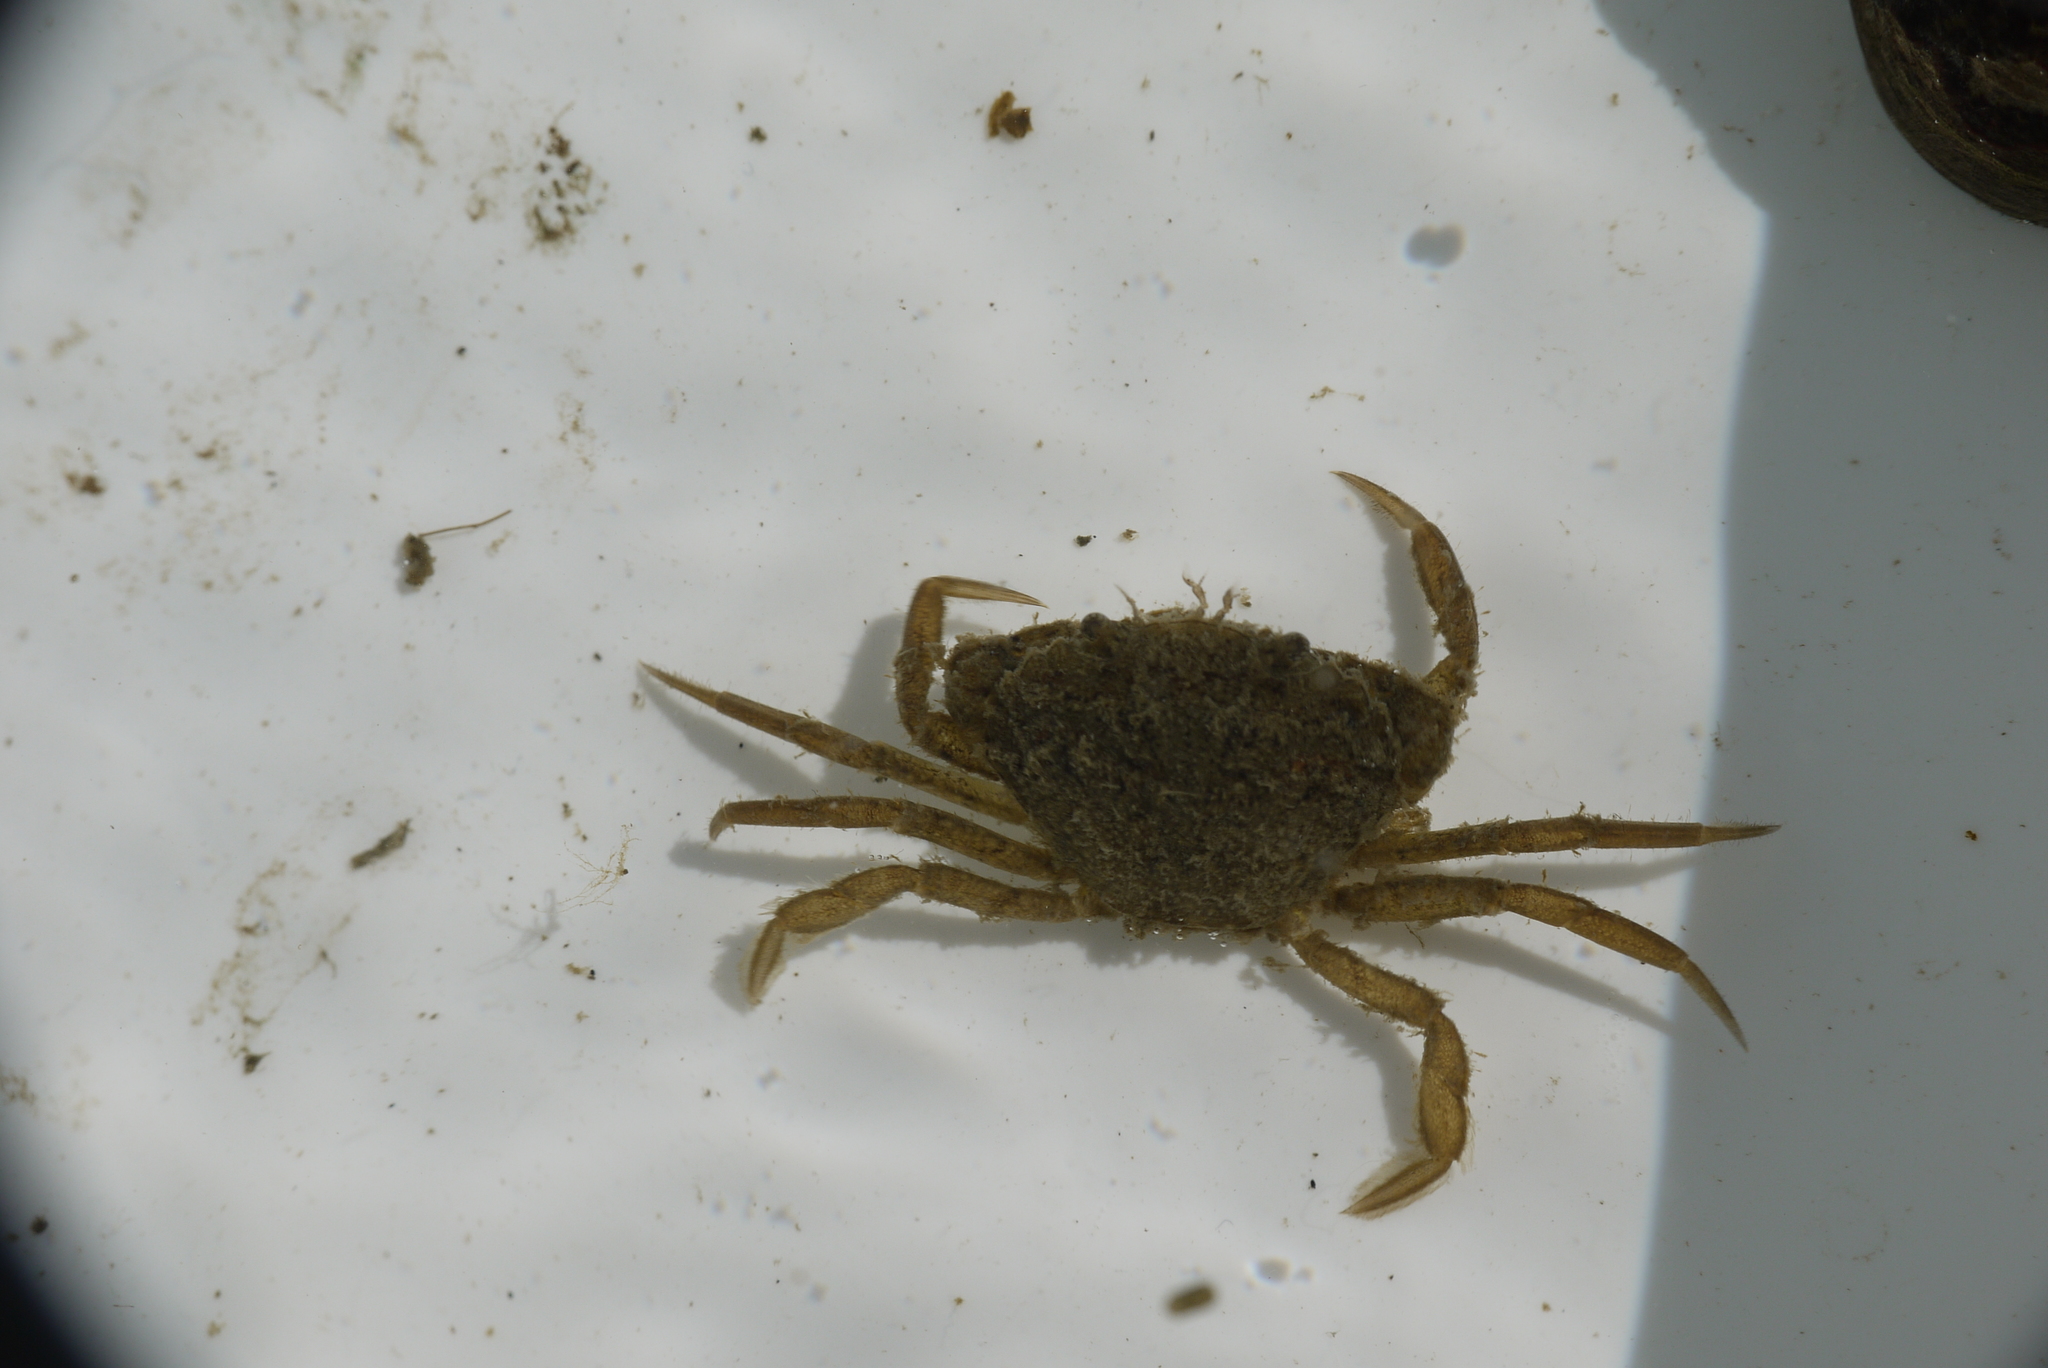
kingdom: Animalia
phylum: Arthropoda
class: Malacostraca
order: Decapoda
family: Carcinidae
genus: Carcinus
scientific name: Carcinus maenas
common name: European green crab
